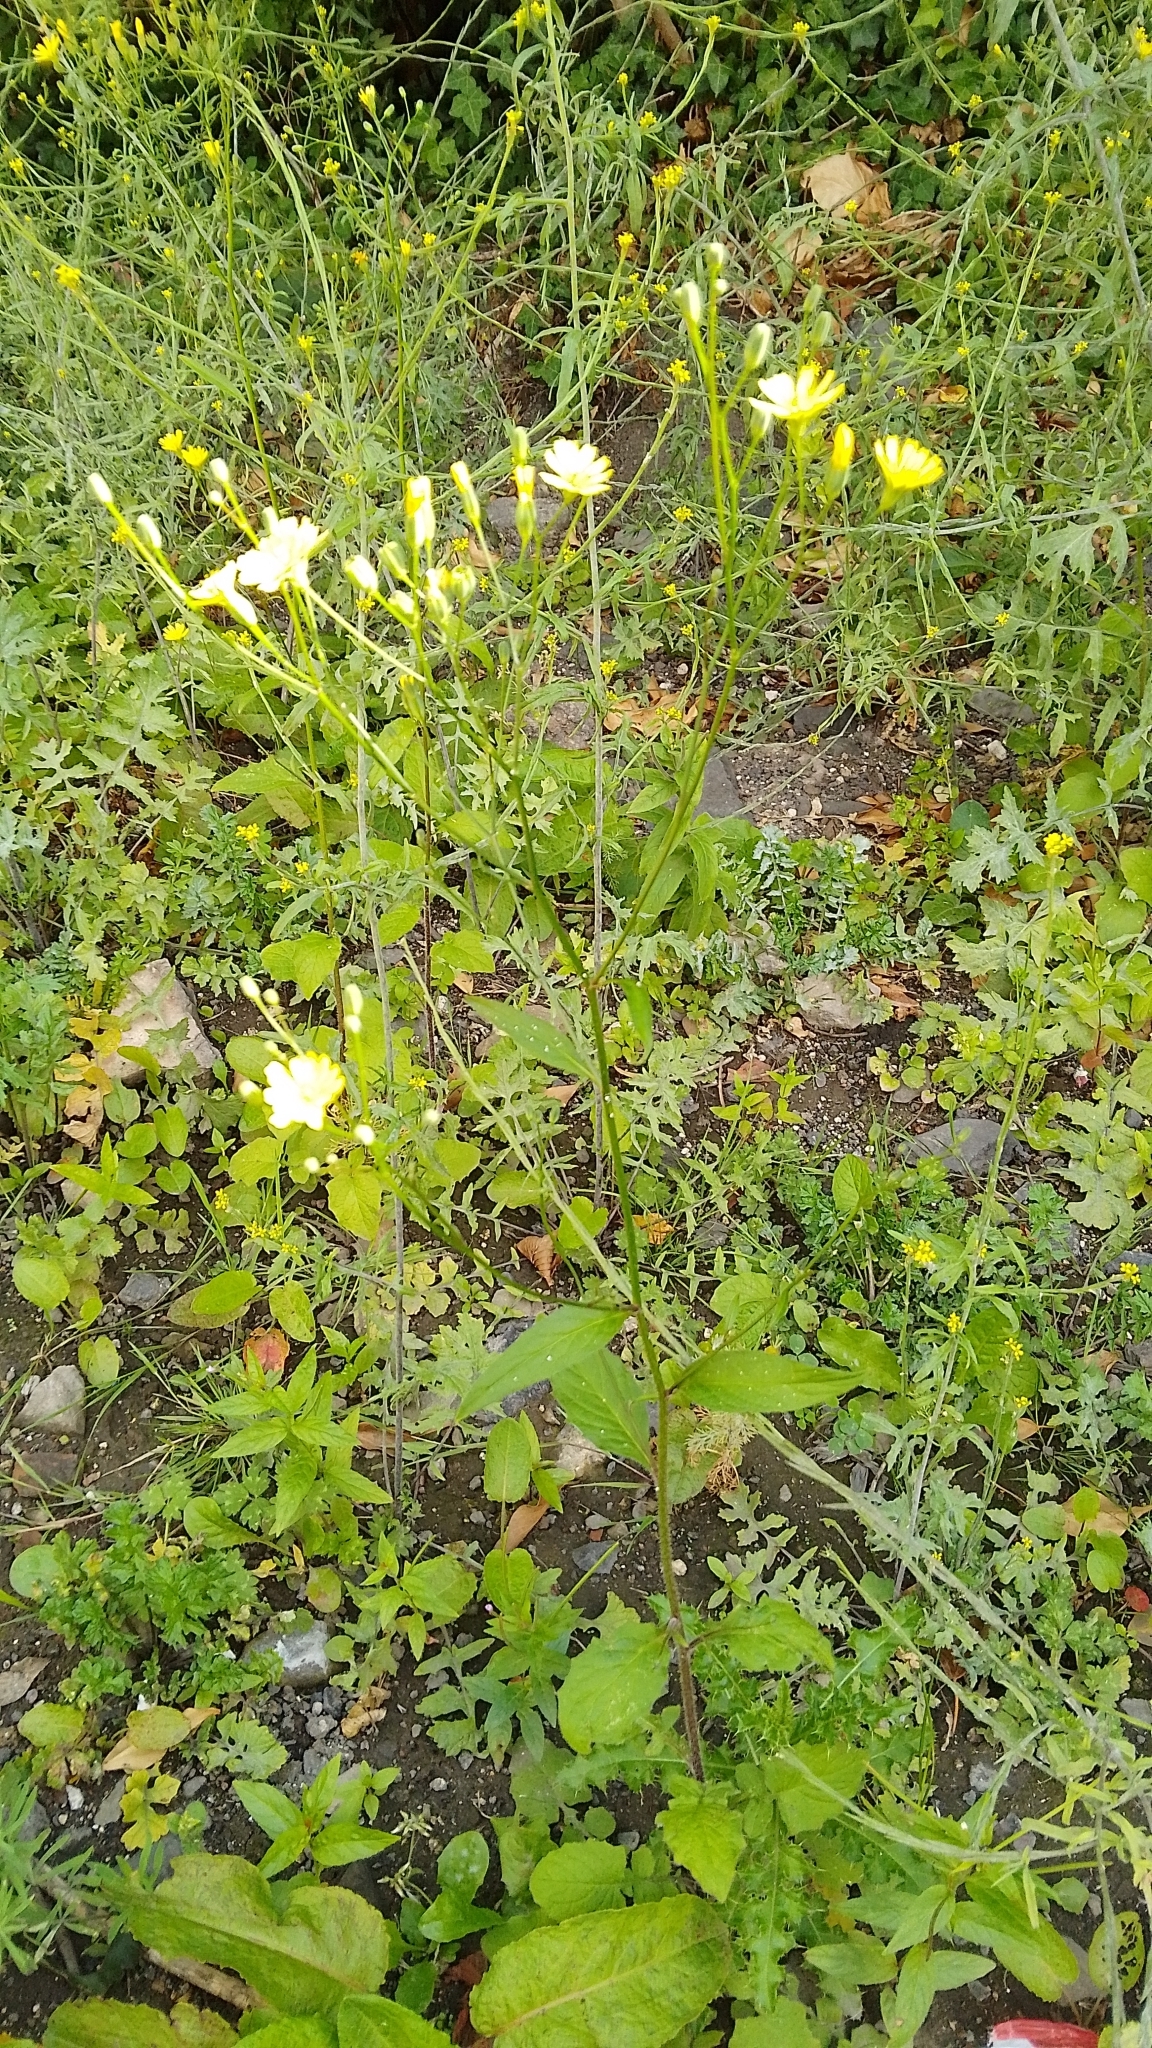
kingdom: Plantae
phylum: Tracheophyta
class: Magnoliopsida
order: Asterales
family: Asteraceae
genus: Lapsana
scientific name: Lapsana communis
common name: Nipplewort
